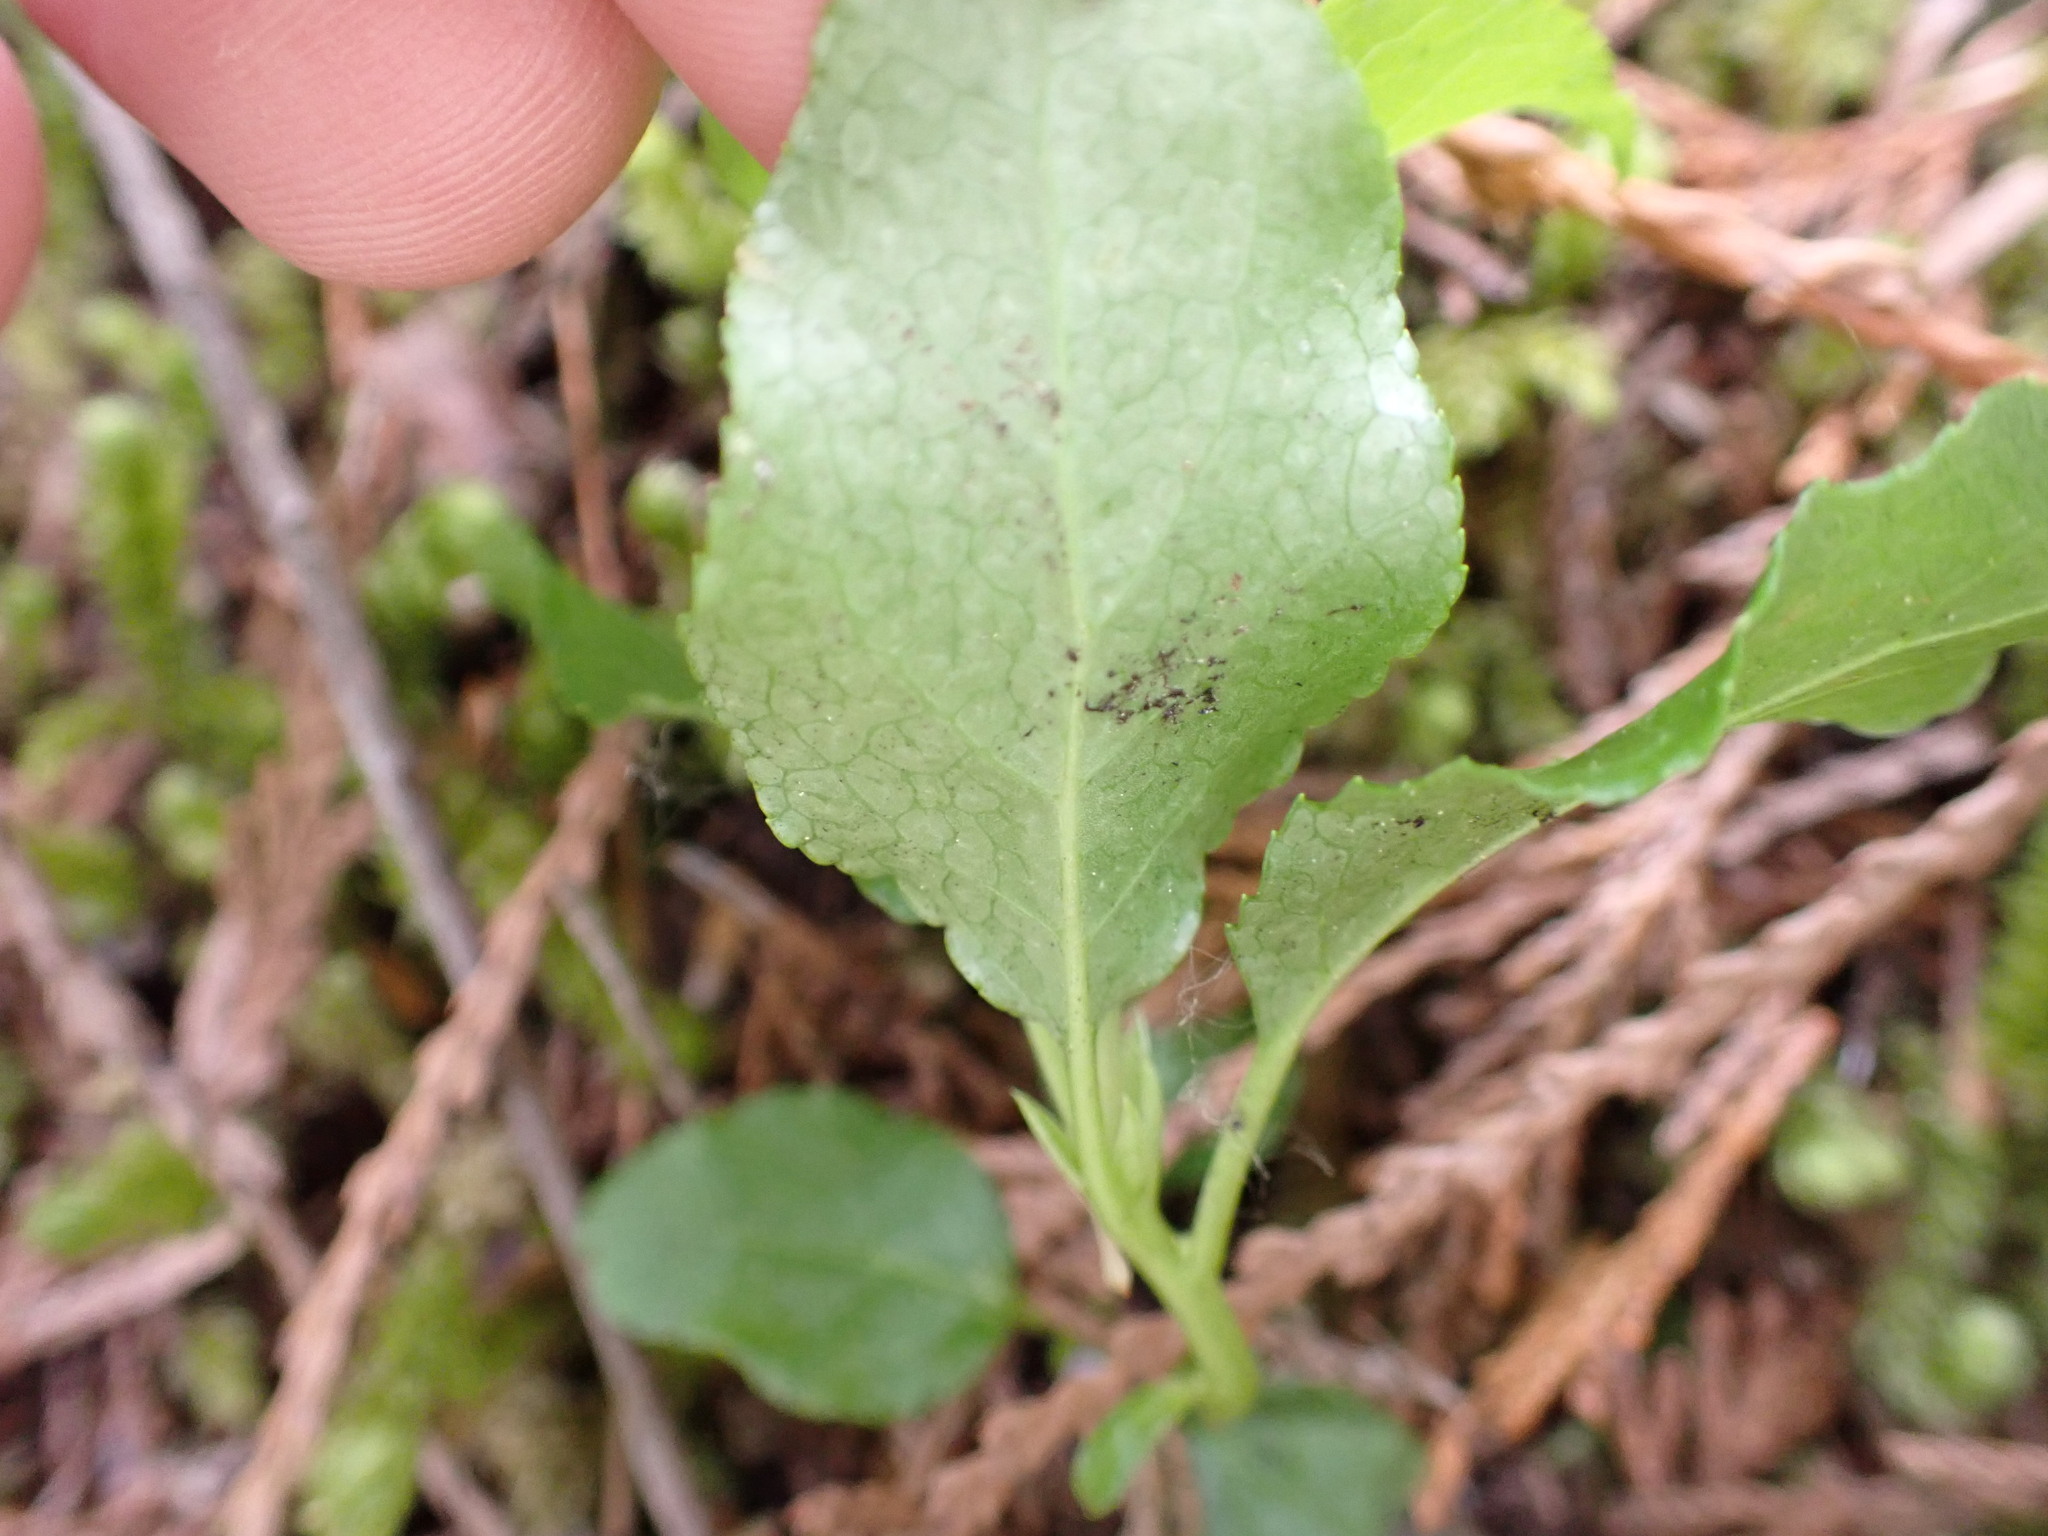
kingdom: Plantae
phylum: Tracheophyta
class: Magnoliopsida
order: Ericales
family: Ericaceae
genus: Orthilia
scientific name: Orthilia secunda
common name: One-sided orthilia
